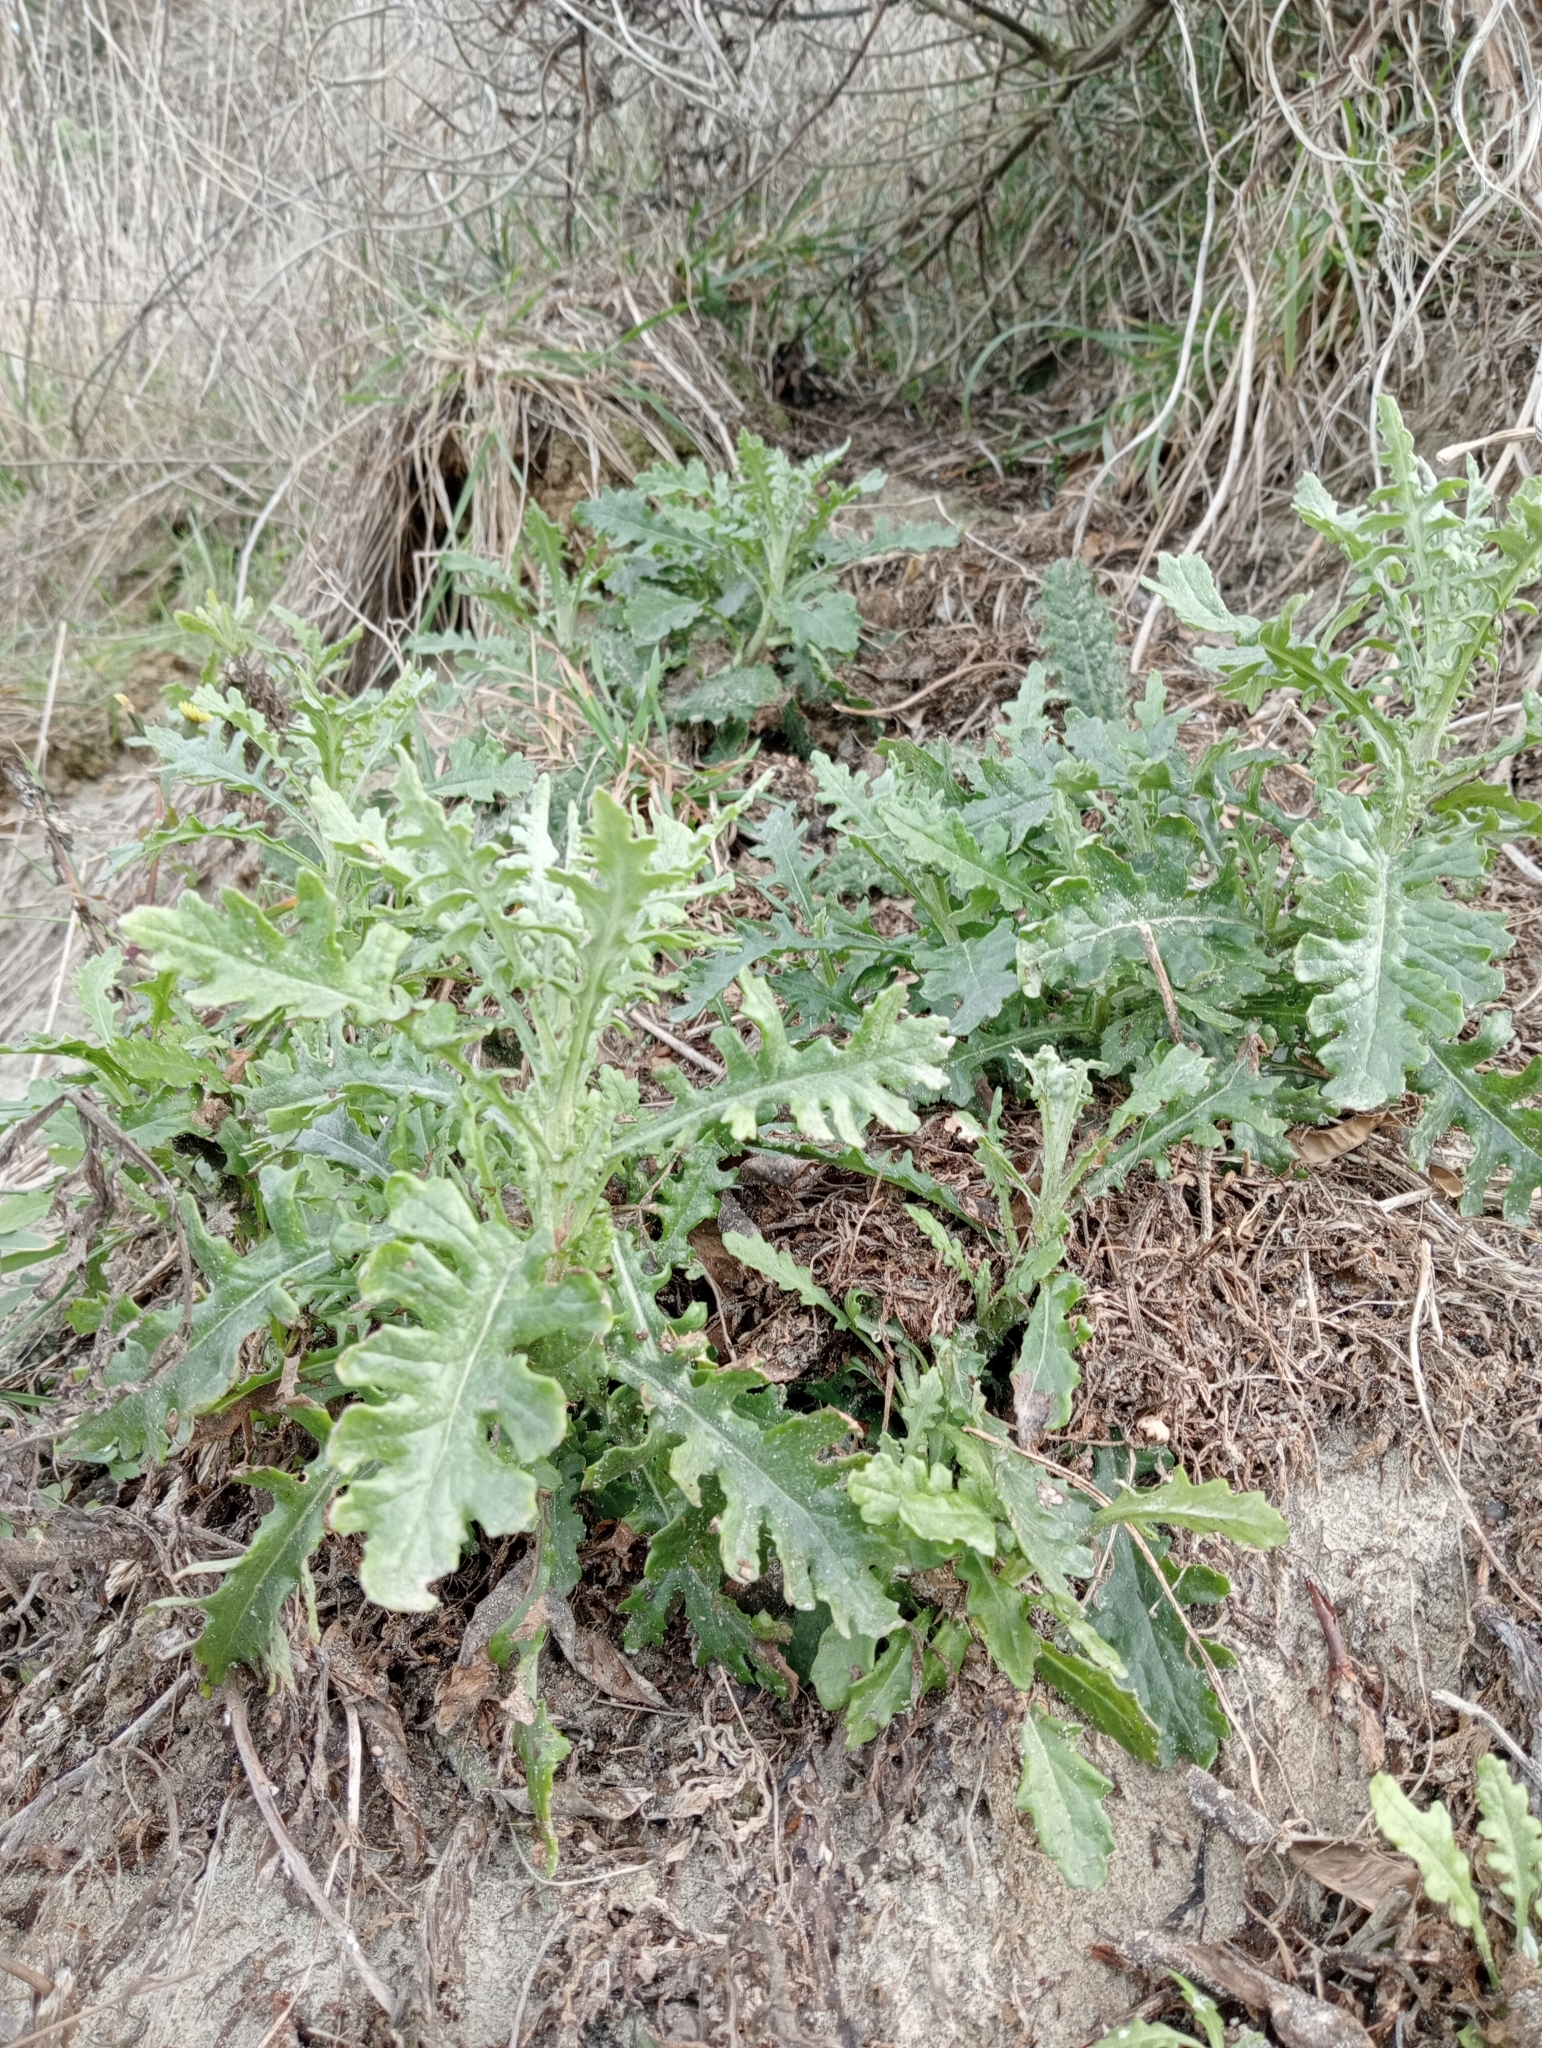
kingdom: Plantae
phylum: Tracheophyta
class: Magnoliopsida
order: Asterales
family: Asteraceae
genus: Senecio
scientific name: Senecio glomeratus
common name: Cutleaf burnweed
